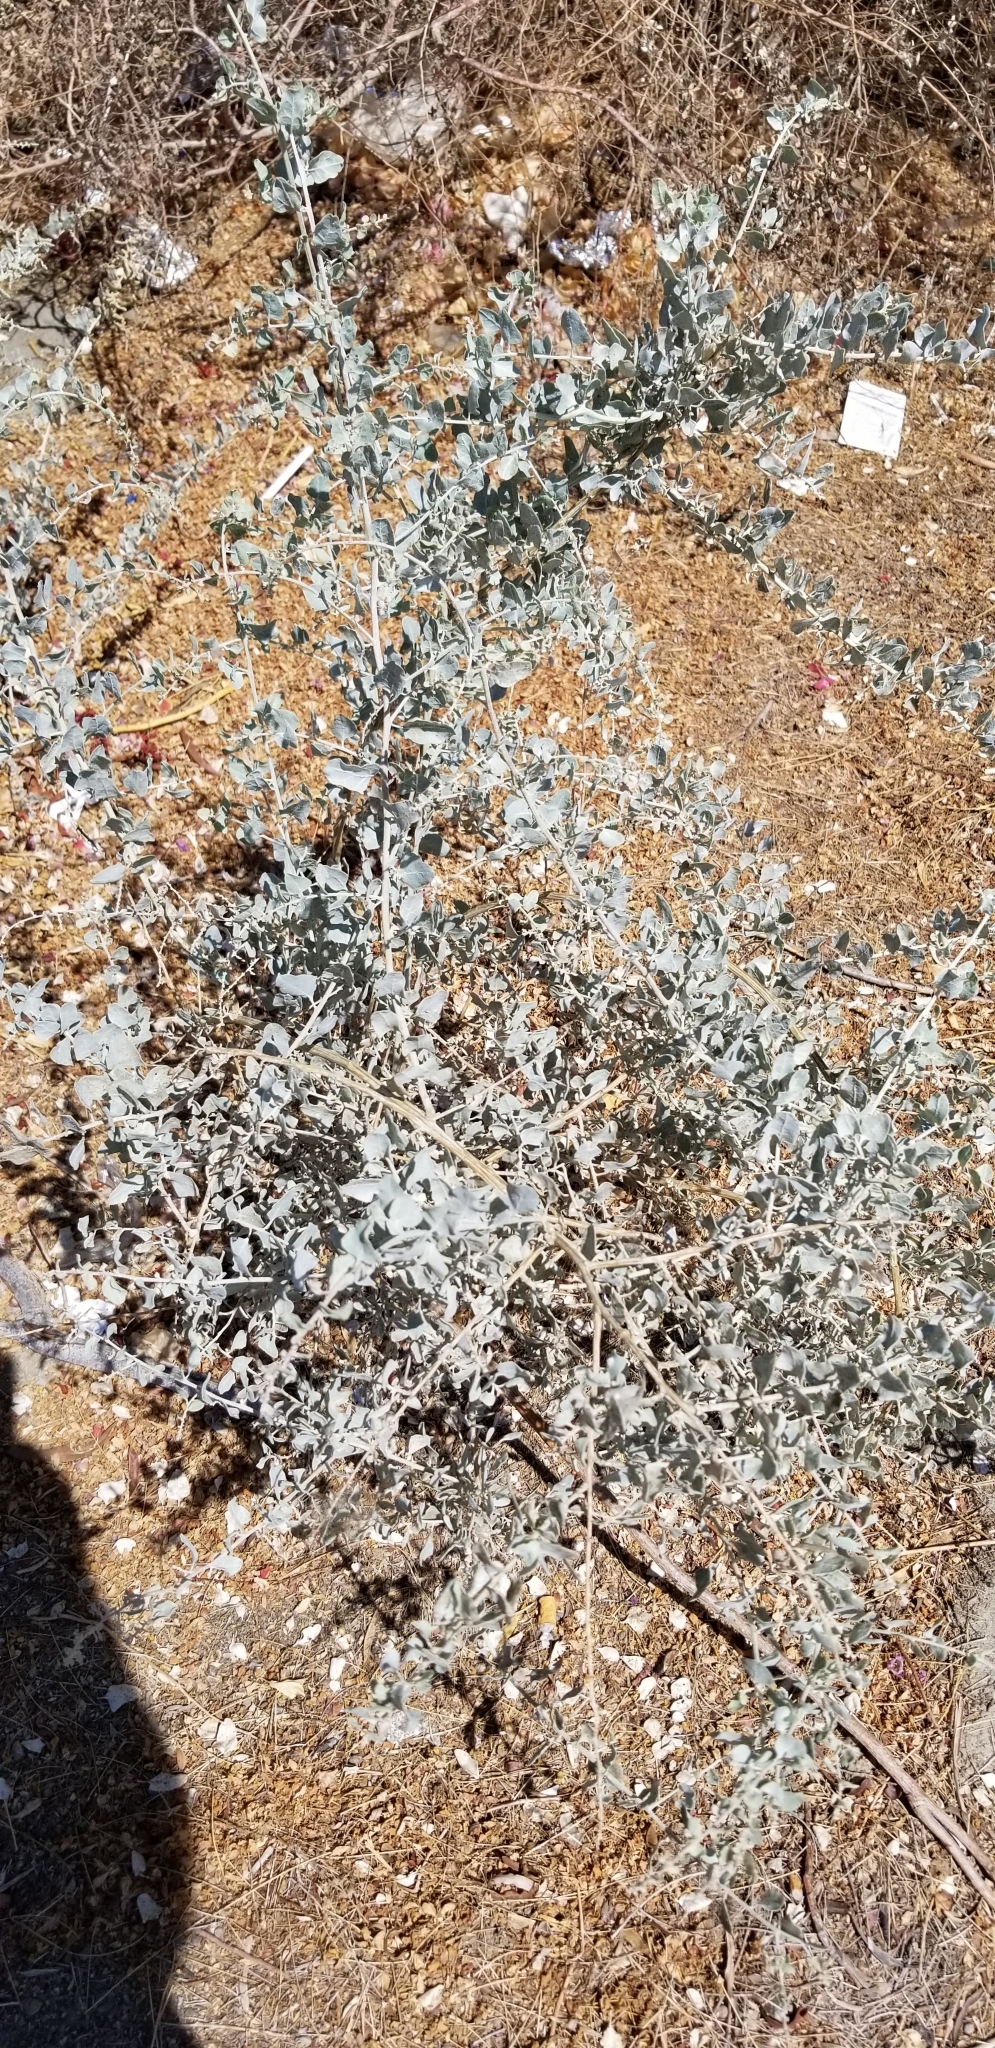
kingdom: Plantae
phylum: Tracheophyta
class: Magnoliopsida
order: Caryophyllales
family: Amaranthaceae
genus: Atriplex
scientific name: Atriplex lentiformis
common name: Big saltbush
